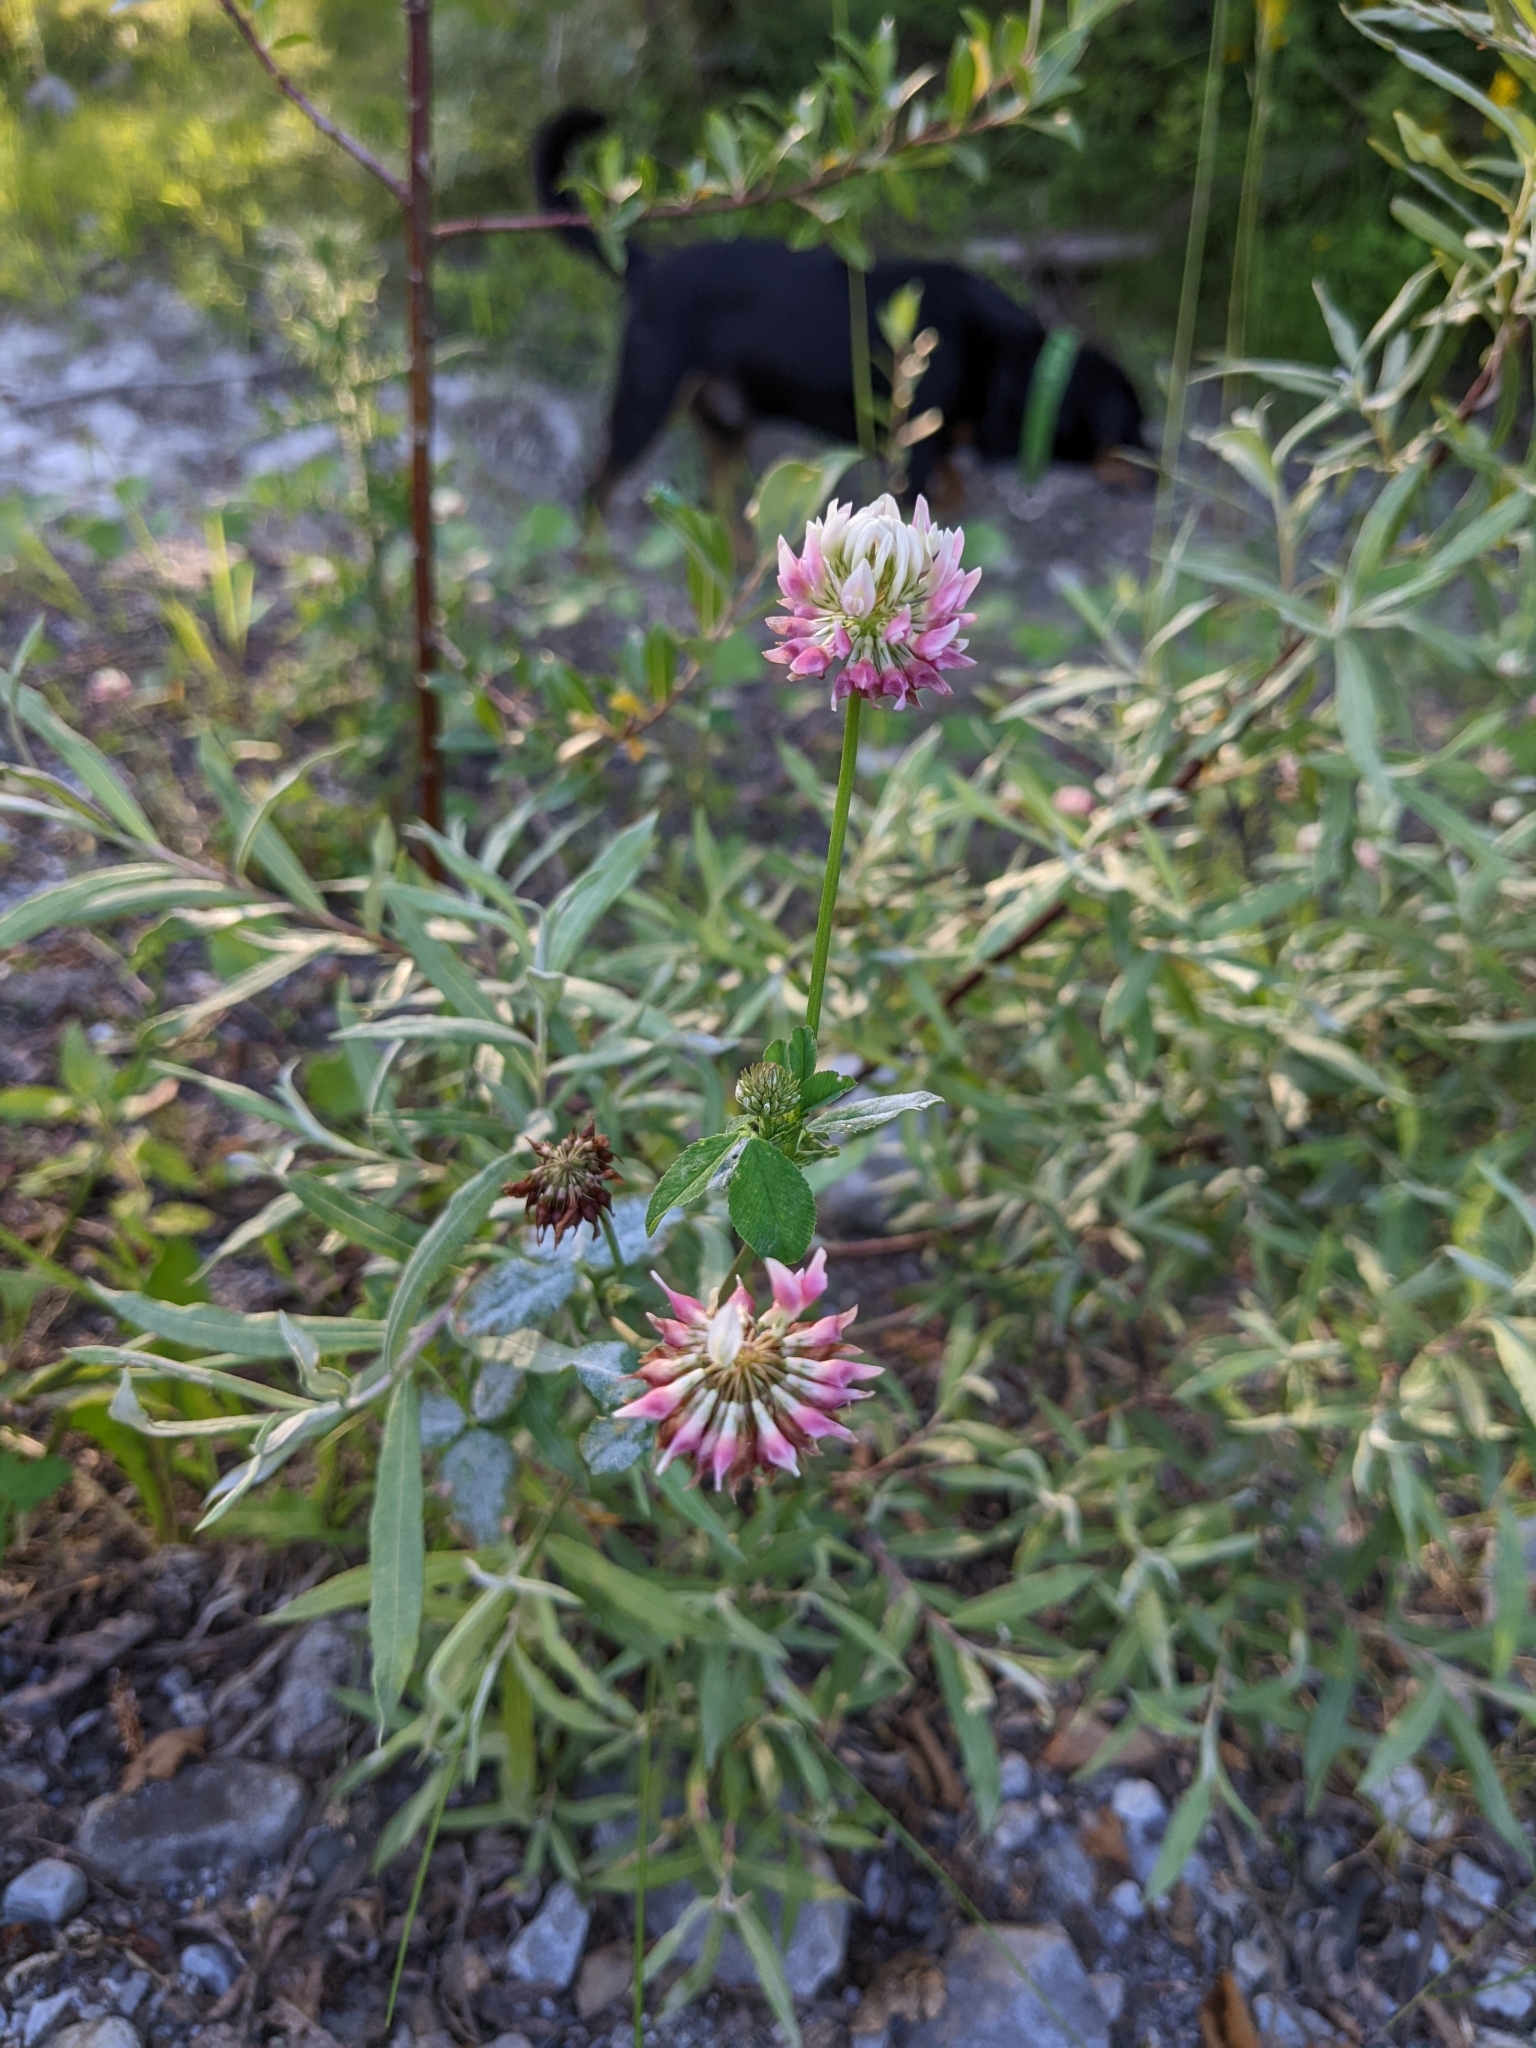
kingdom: Plantae
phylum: Tracheophyta
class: Magnoliopsida
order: Fabales
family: Fabaceae
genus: Trifolium
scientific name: Trifolium hybridum
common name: Alsike clover
